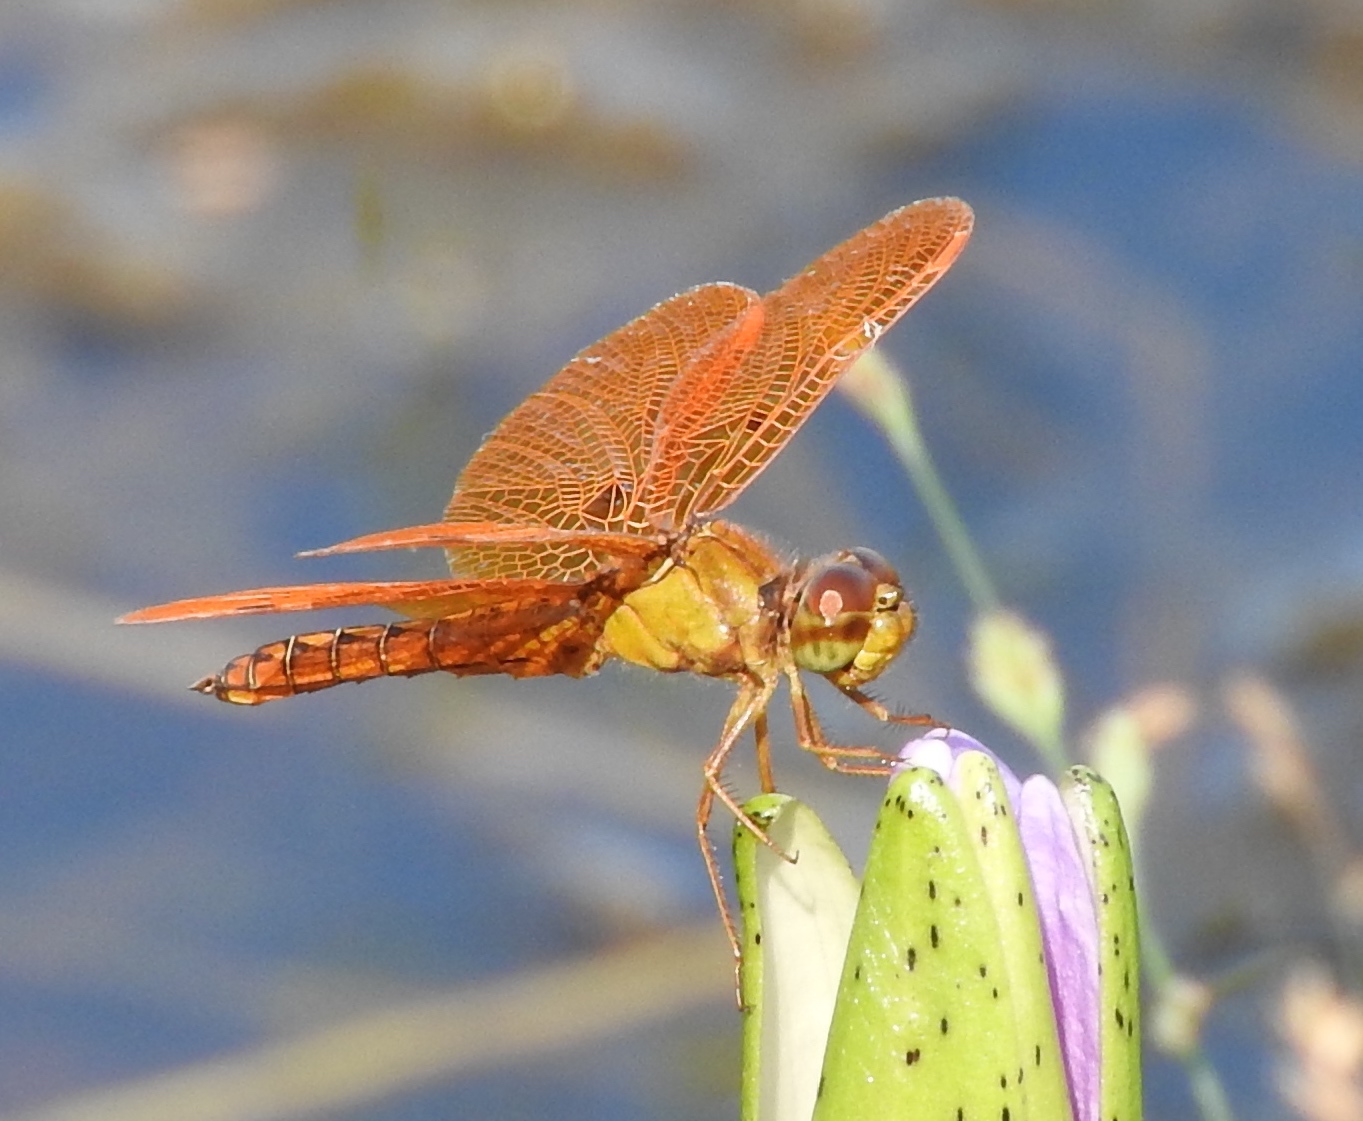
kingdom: Animalia
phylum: Arthropoda
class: Insecta
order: Odonata
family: Libellulidae
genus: Perithemis
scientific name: Perithemis intensa
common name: Mexican amberwing
